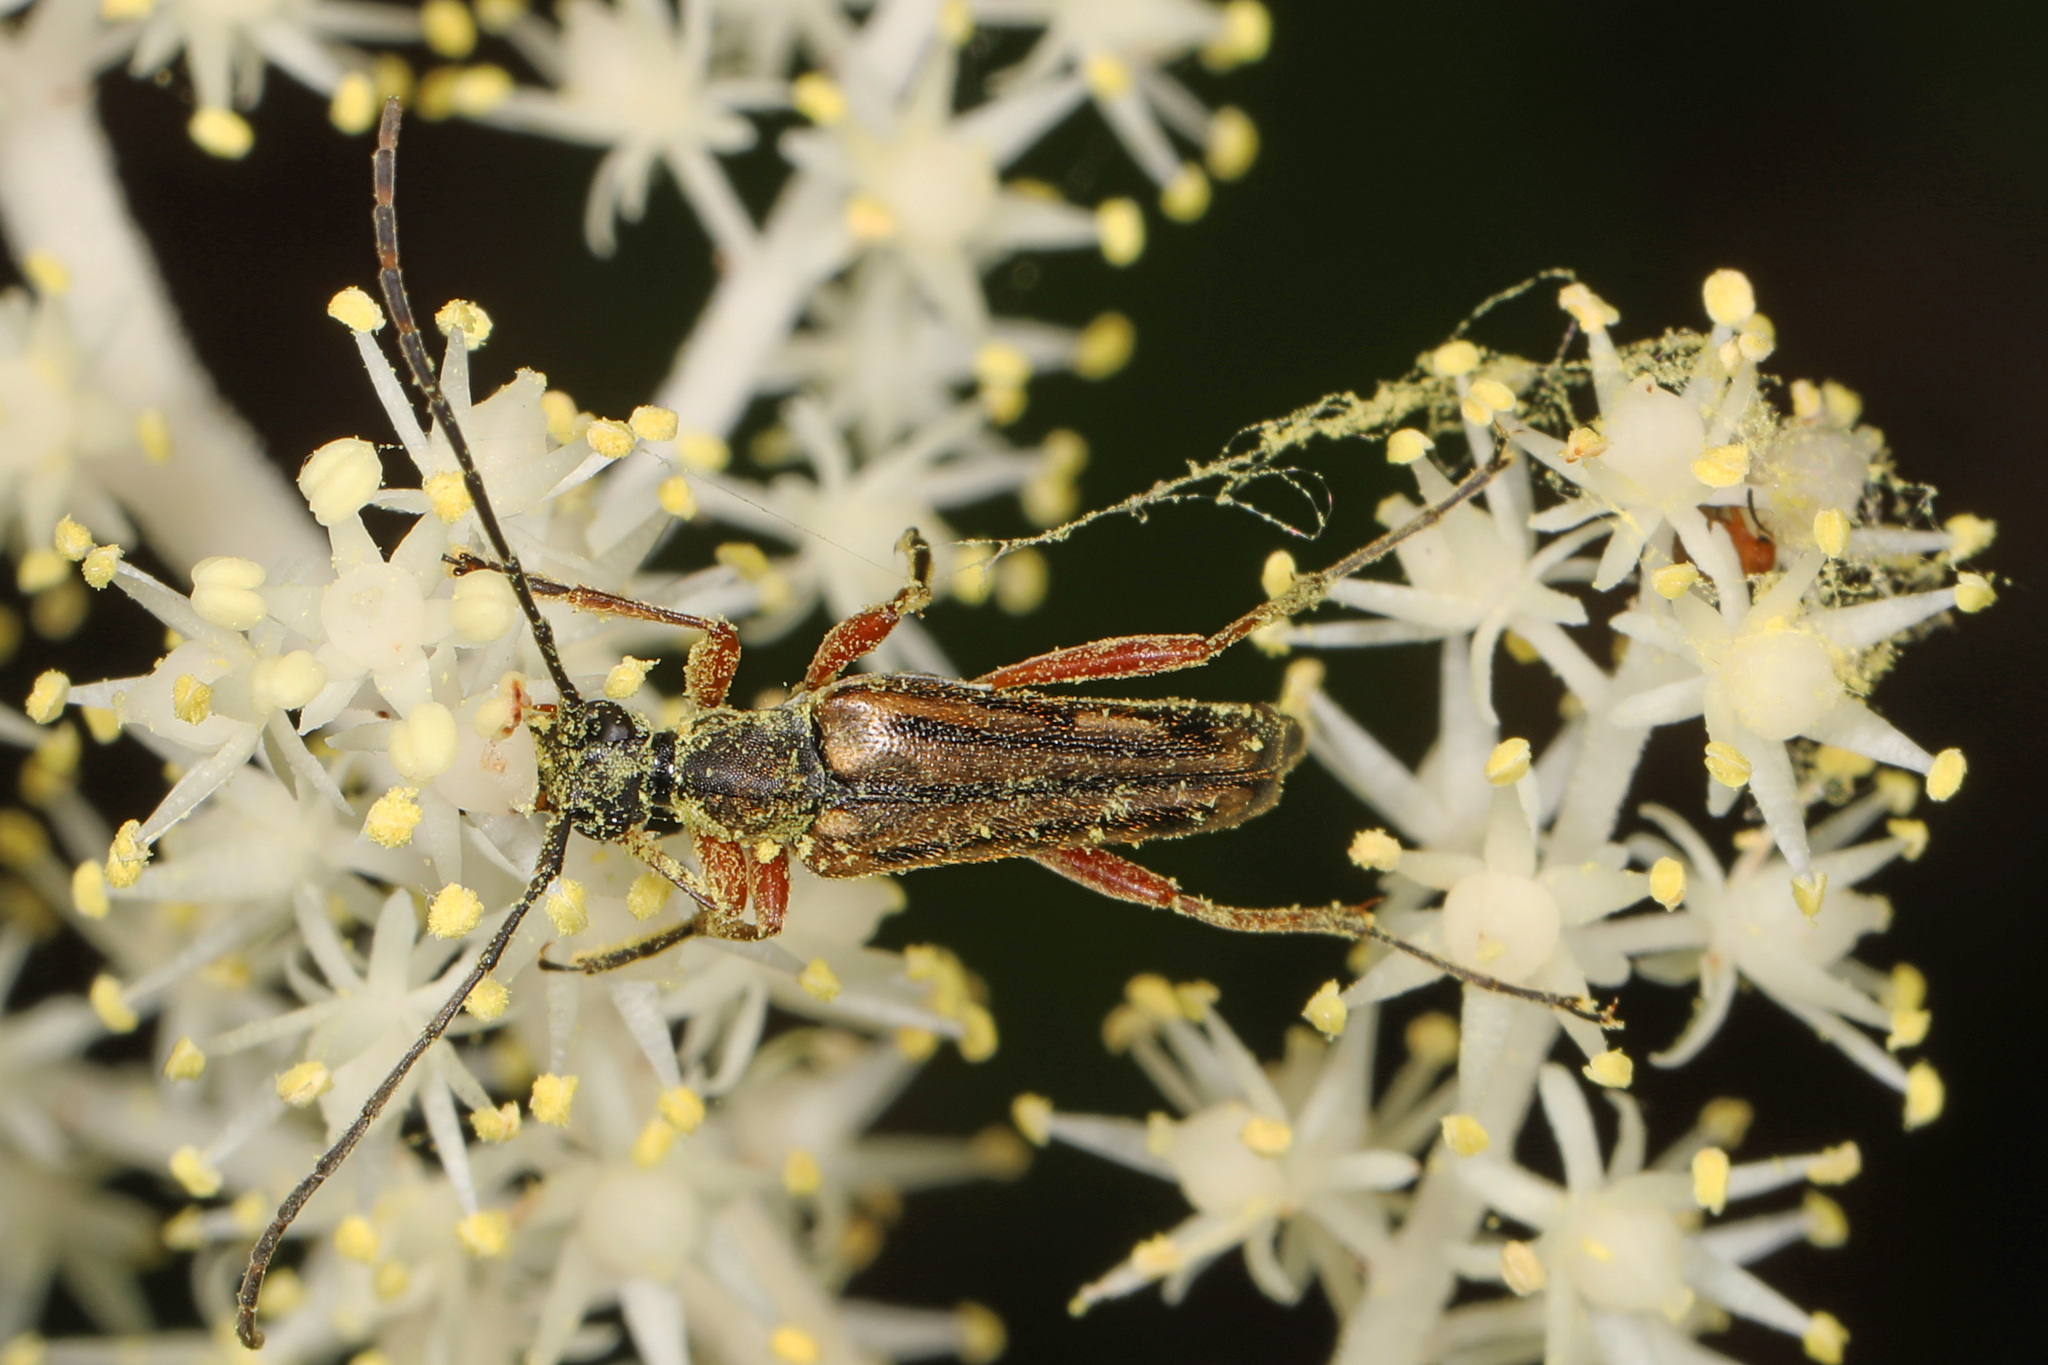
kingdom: Animalia
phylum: Arthropoda
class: Insecta
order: Coleoptera
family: Cerambycidae
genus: Analeptura
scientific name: Analeptura lineola
